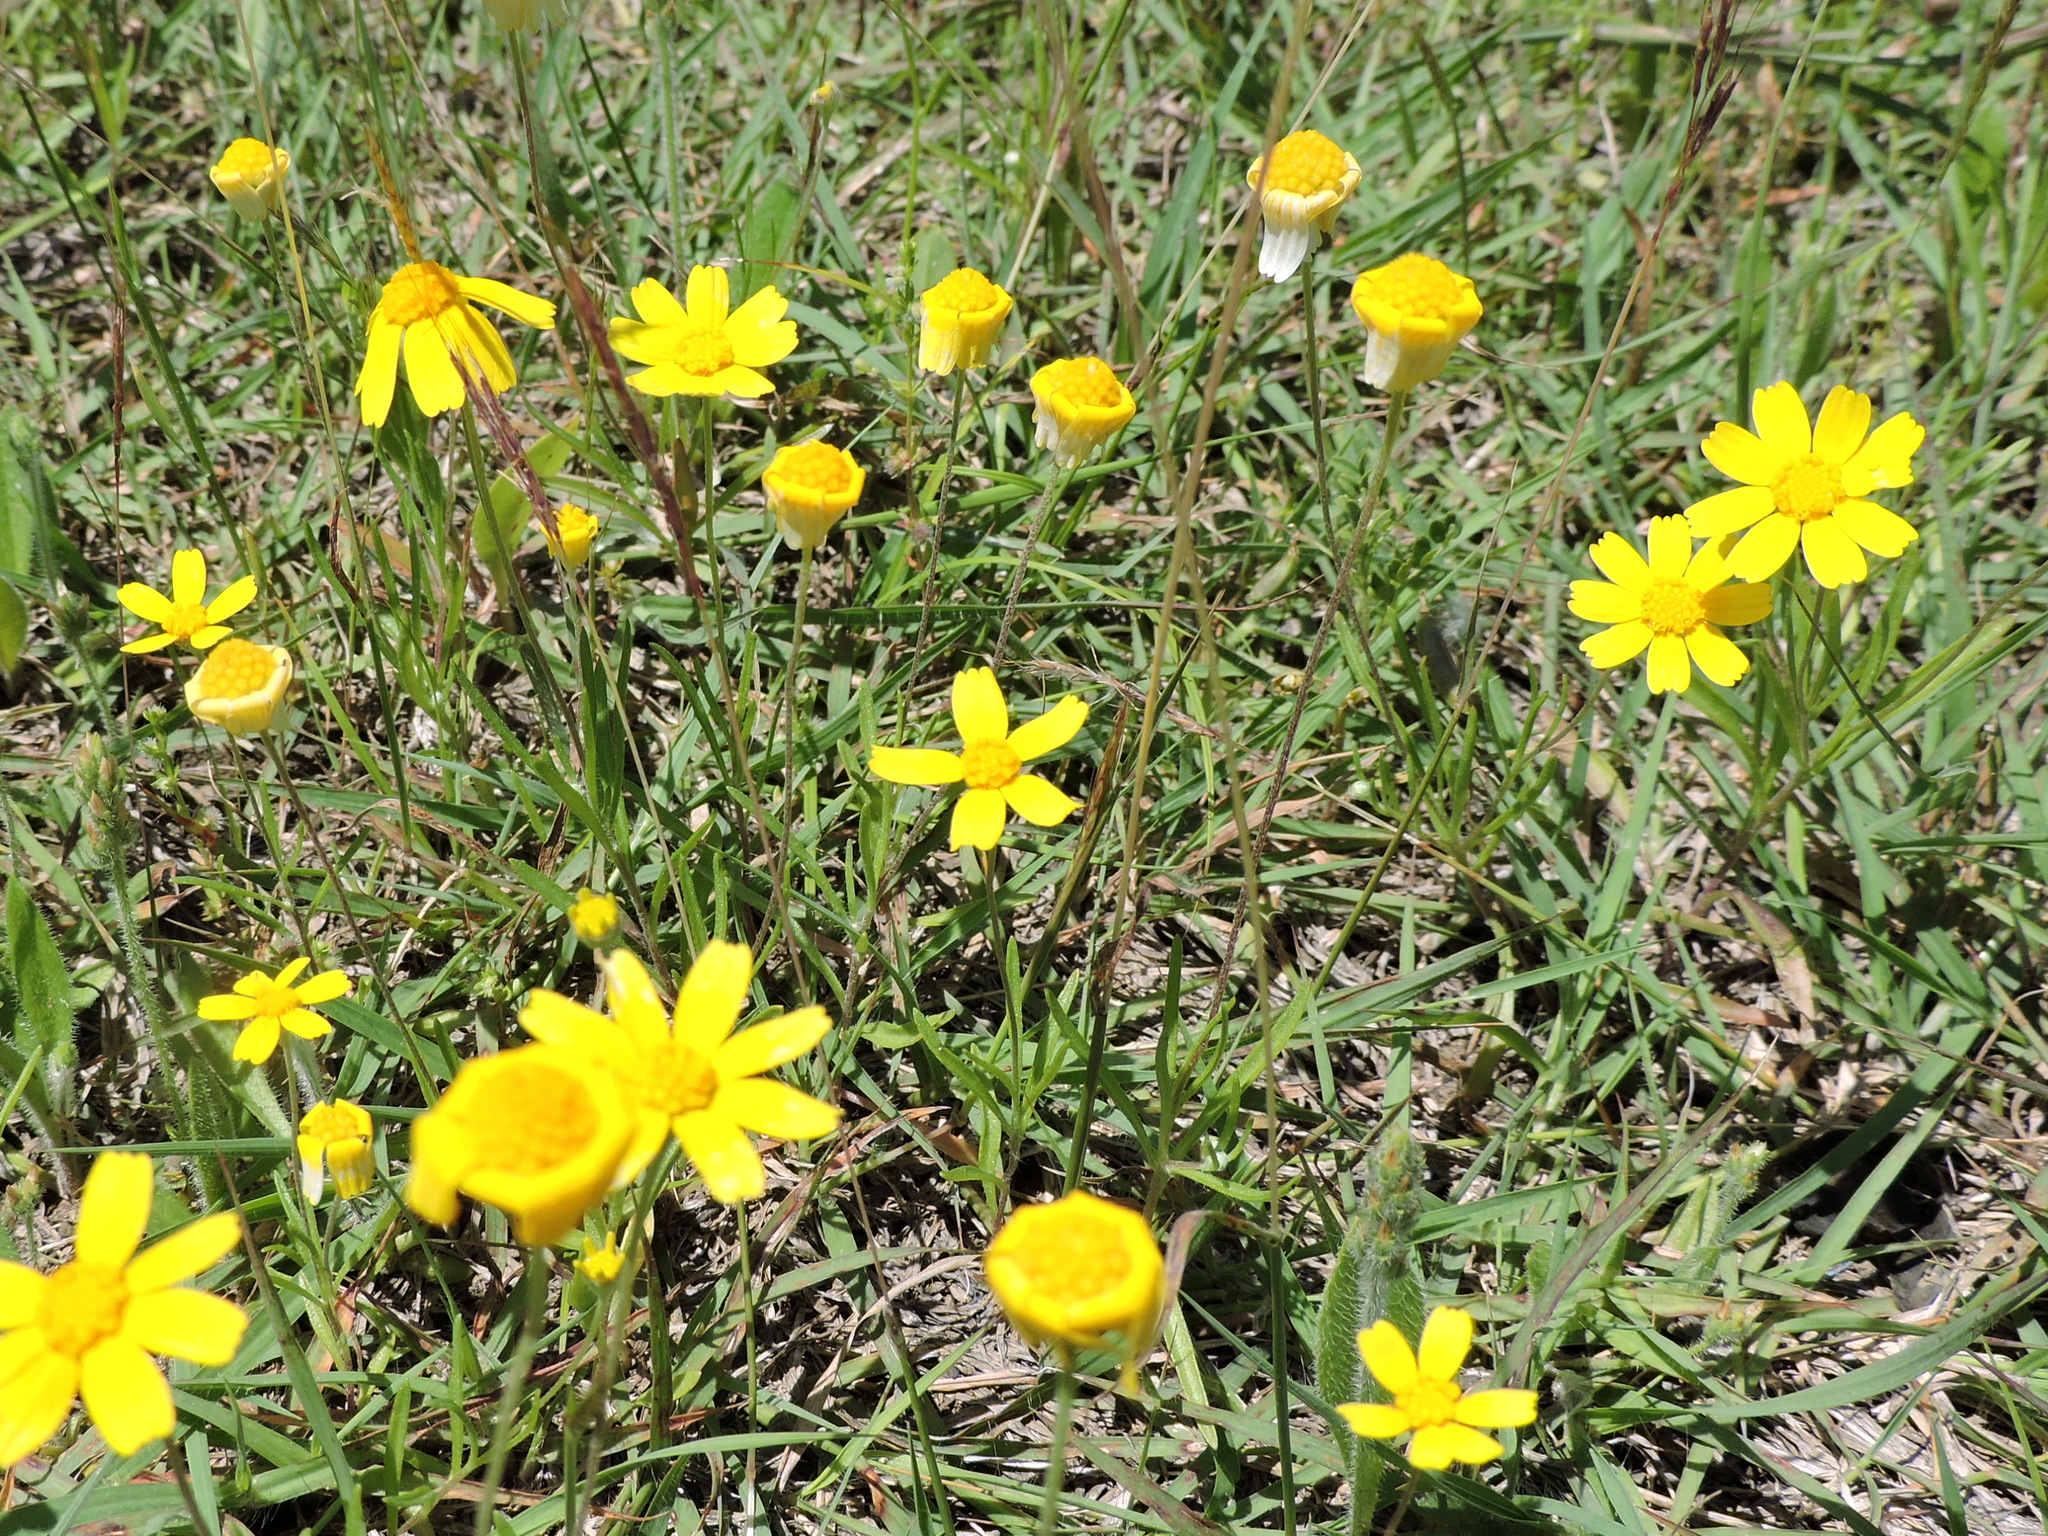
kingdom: Plantae
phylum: Tracheophyta
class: Magnoliopsida
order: Asterales
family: Asteraceae
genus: Tetraneuris
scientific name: Tetraneuris linearifolia
